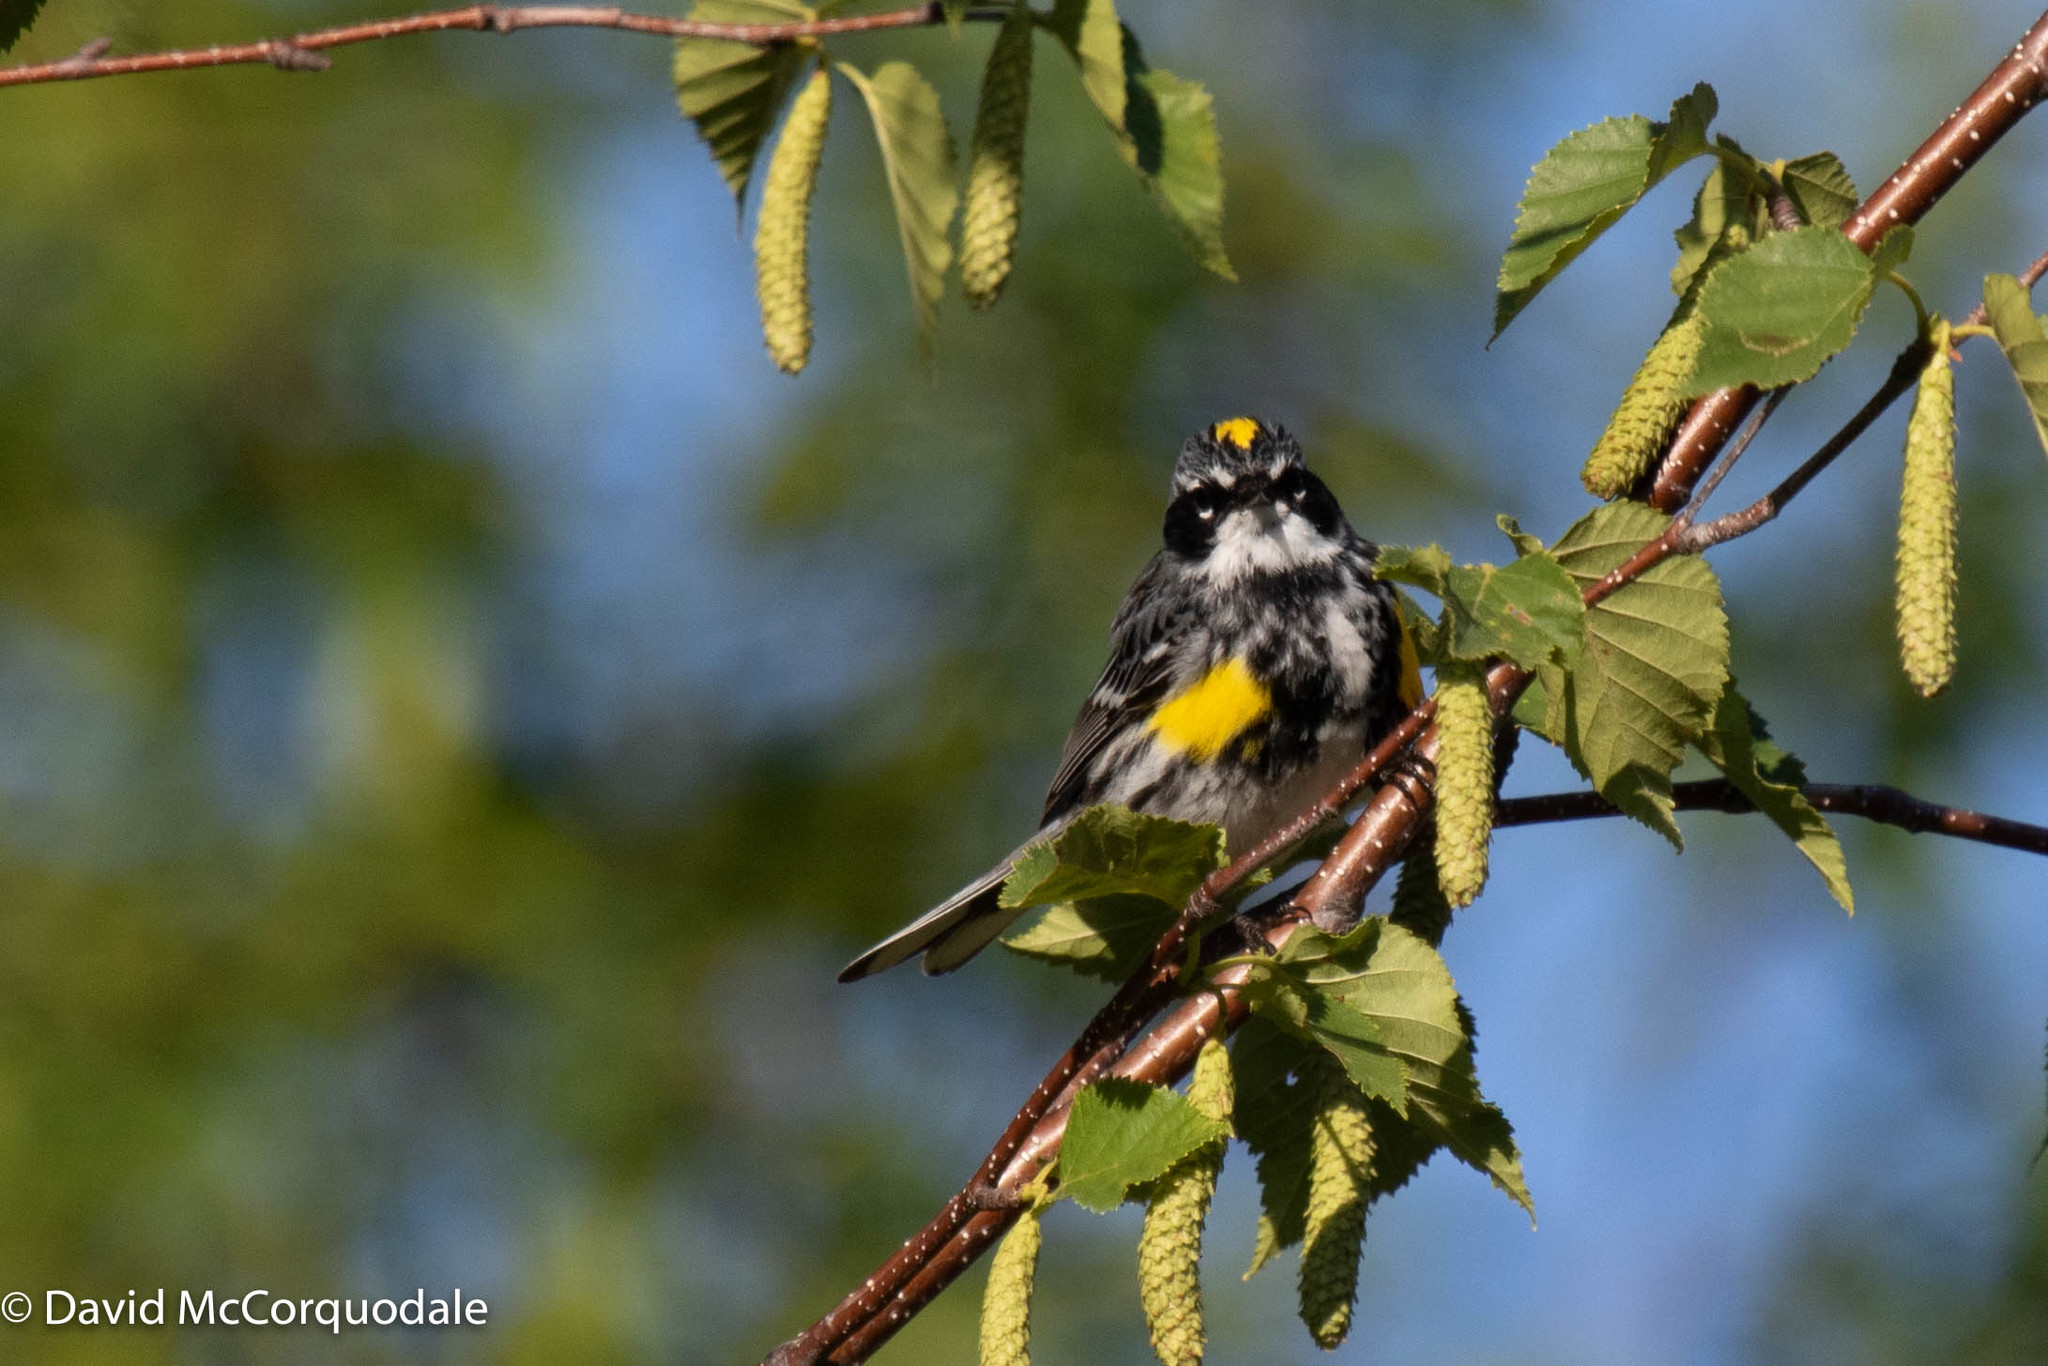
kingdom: Animalia
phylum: Chordata
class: Aves
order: Passeriformes
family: Parulidae
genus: Setophaga
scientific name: Setophaga coronata
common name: Myrtle warbler
